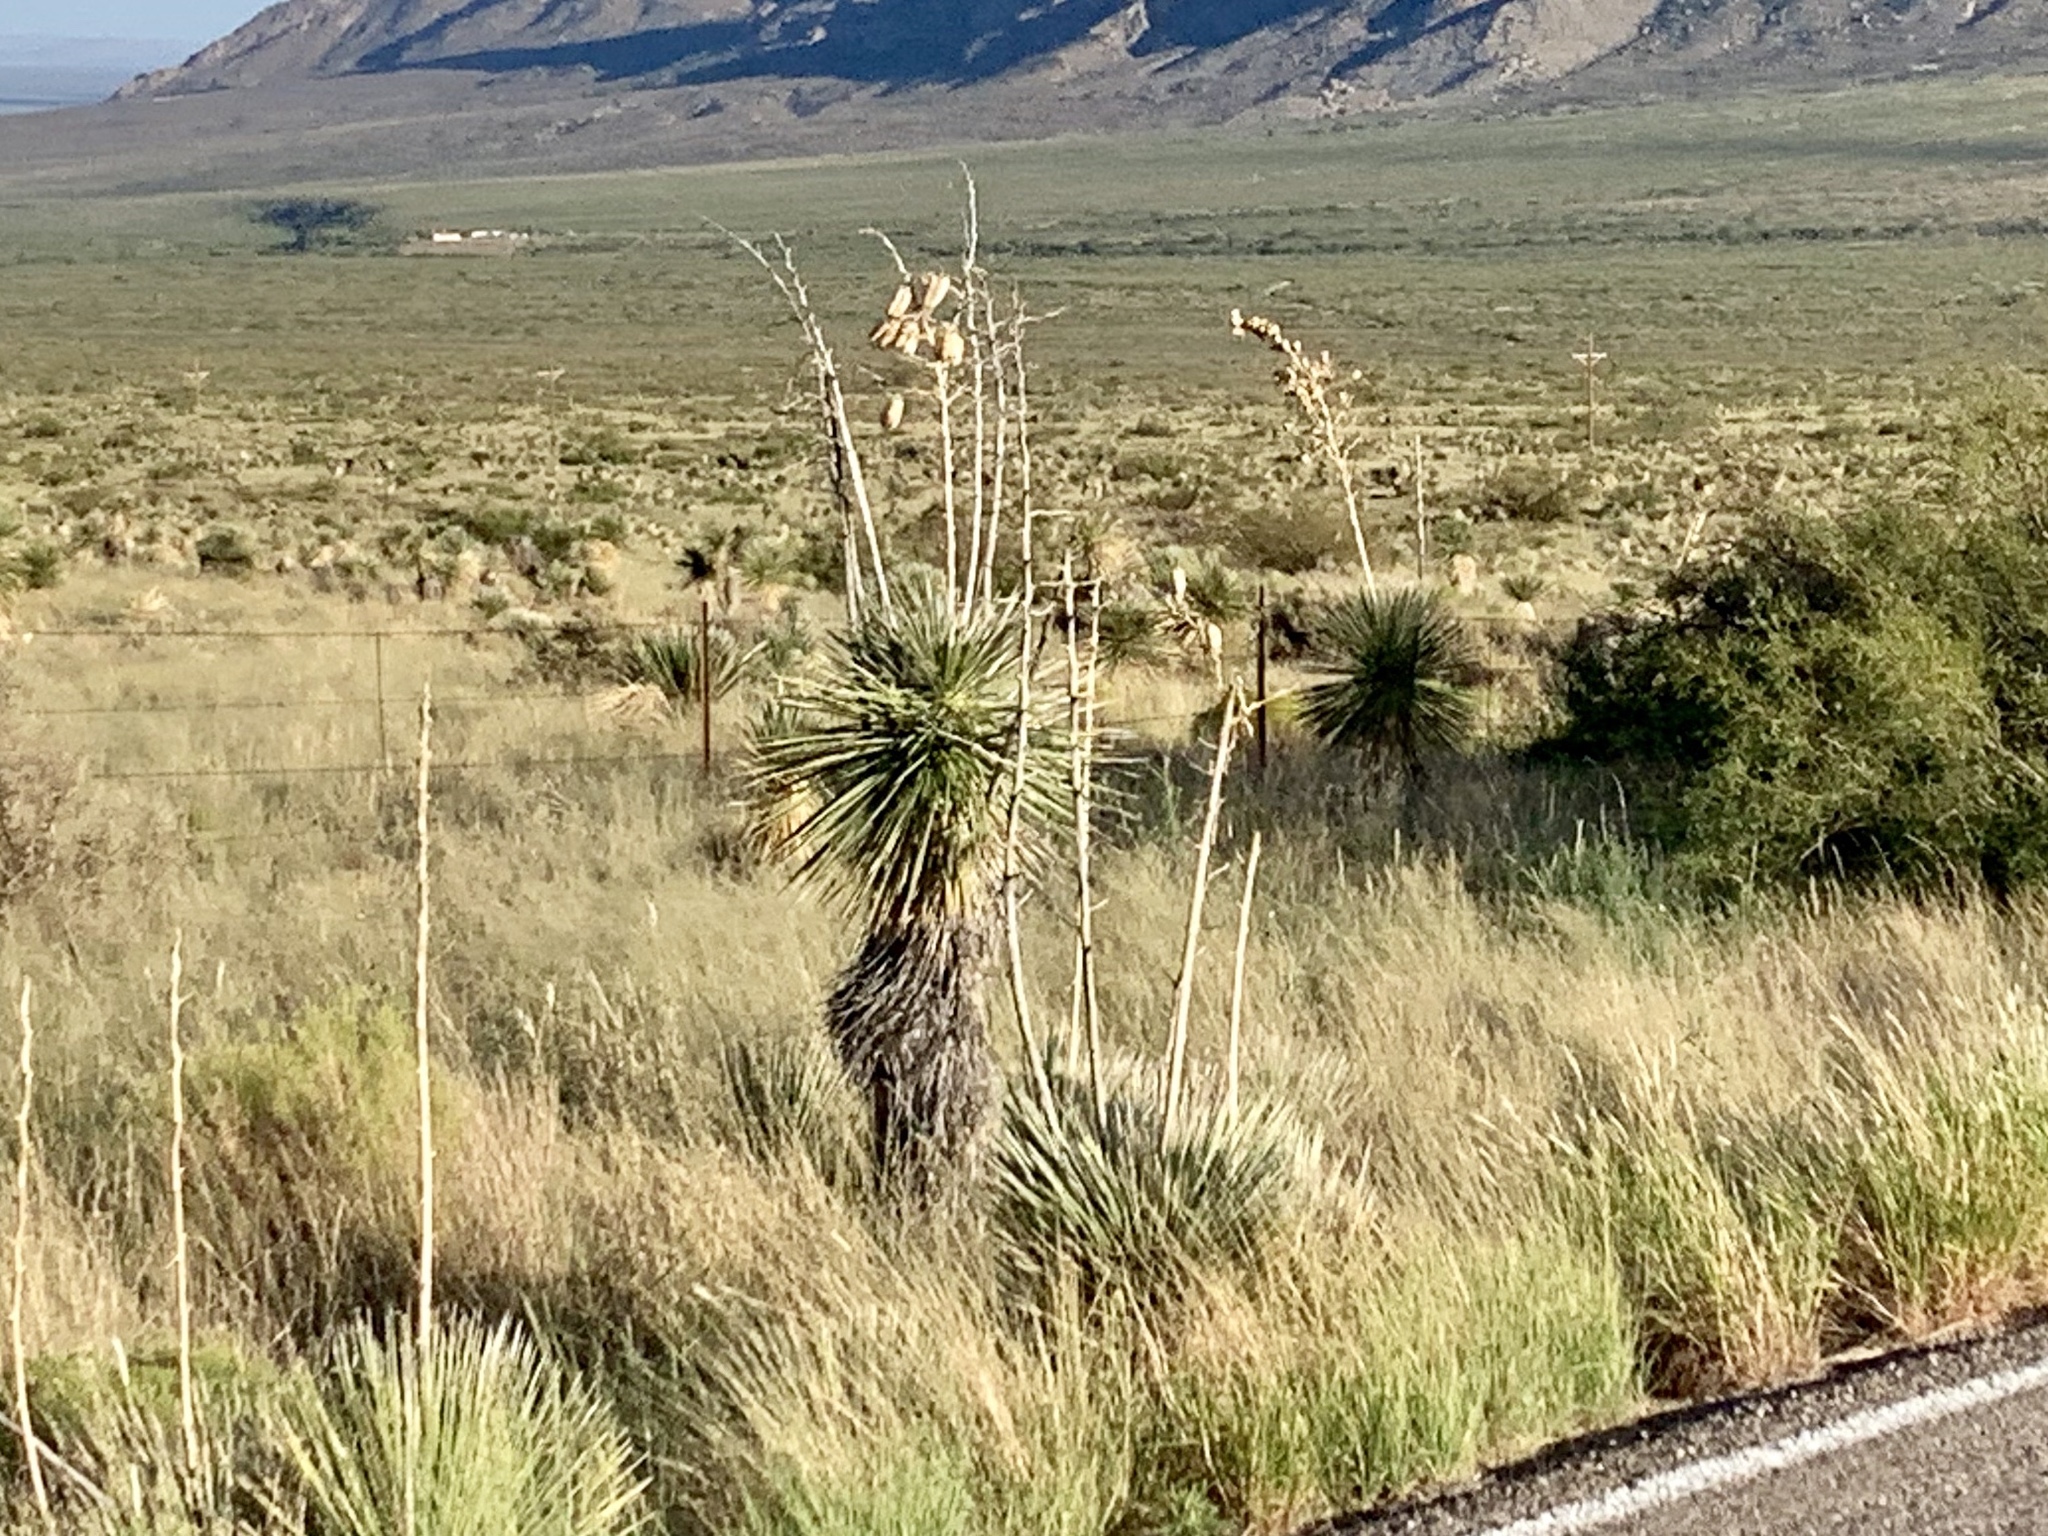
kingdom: Plantae
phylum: Tracheophyta
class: Liliopsida
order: Asparagales
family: Asparagaceae
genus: Yucca
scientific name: Yucca elata
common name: Palmella
